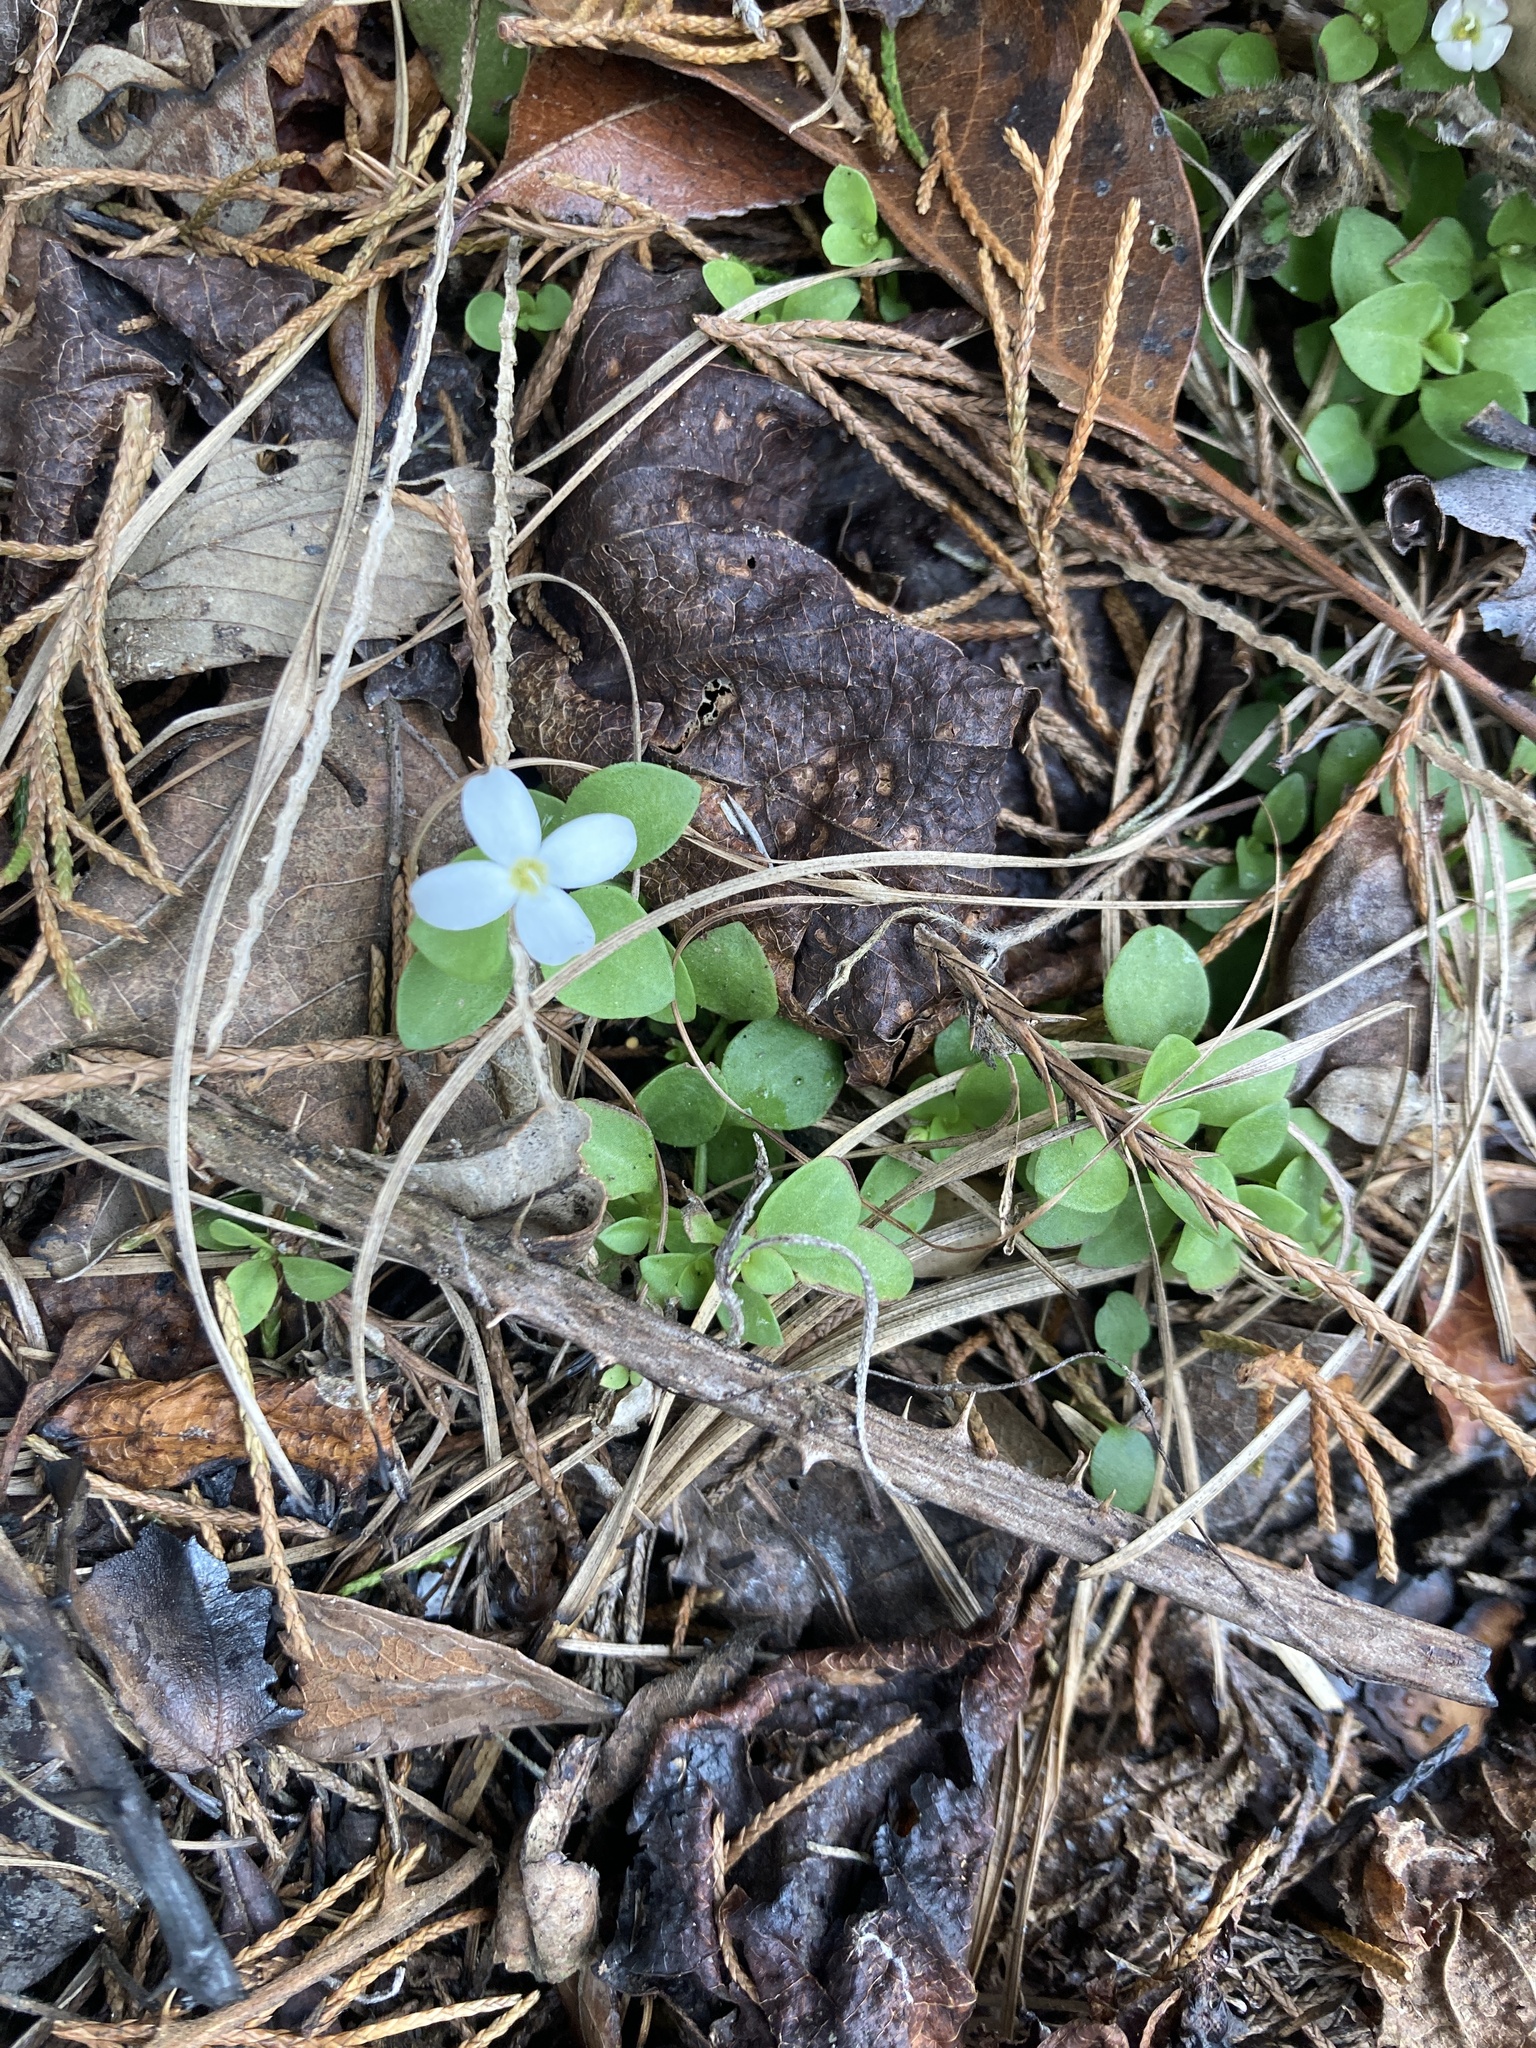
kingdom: Plantae
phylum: Tracheophyta
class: Magnoliopsida
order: Gentianales
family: Rubiaceae
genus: Houstonia
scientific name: Houstonia procumbens
